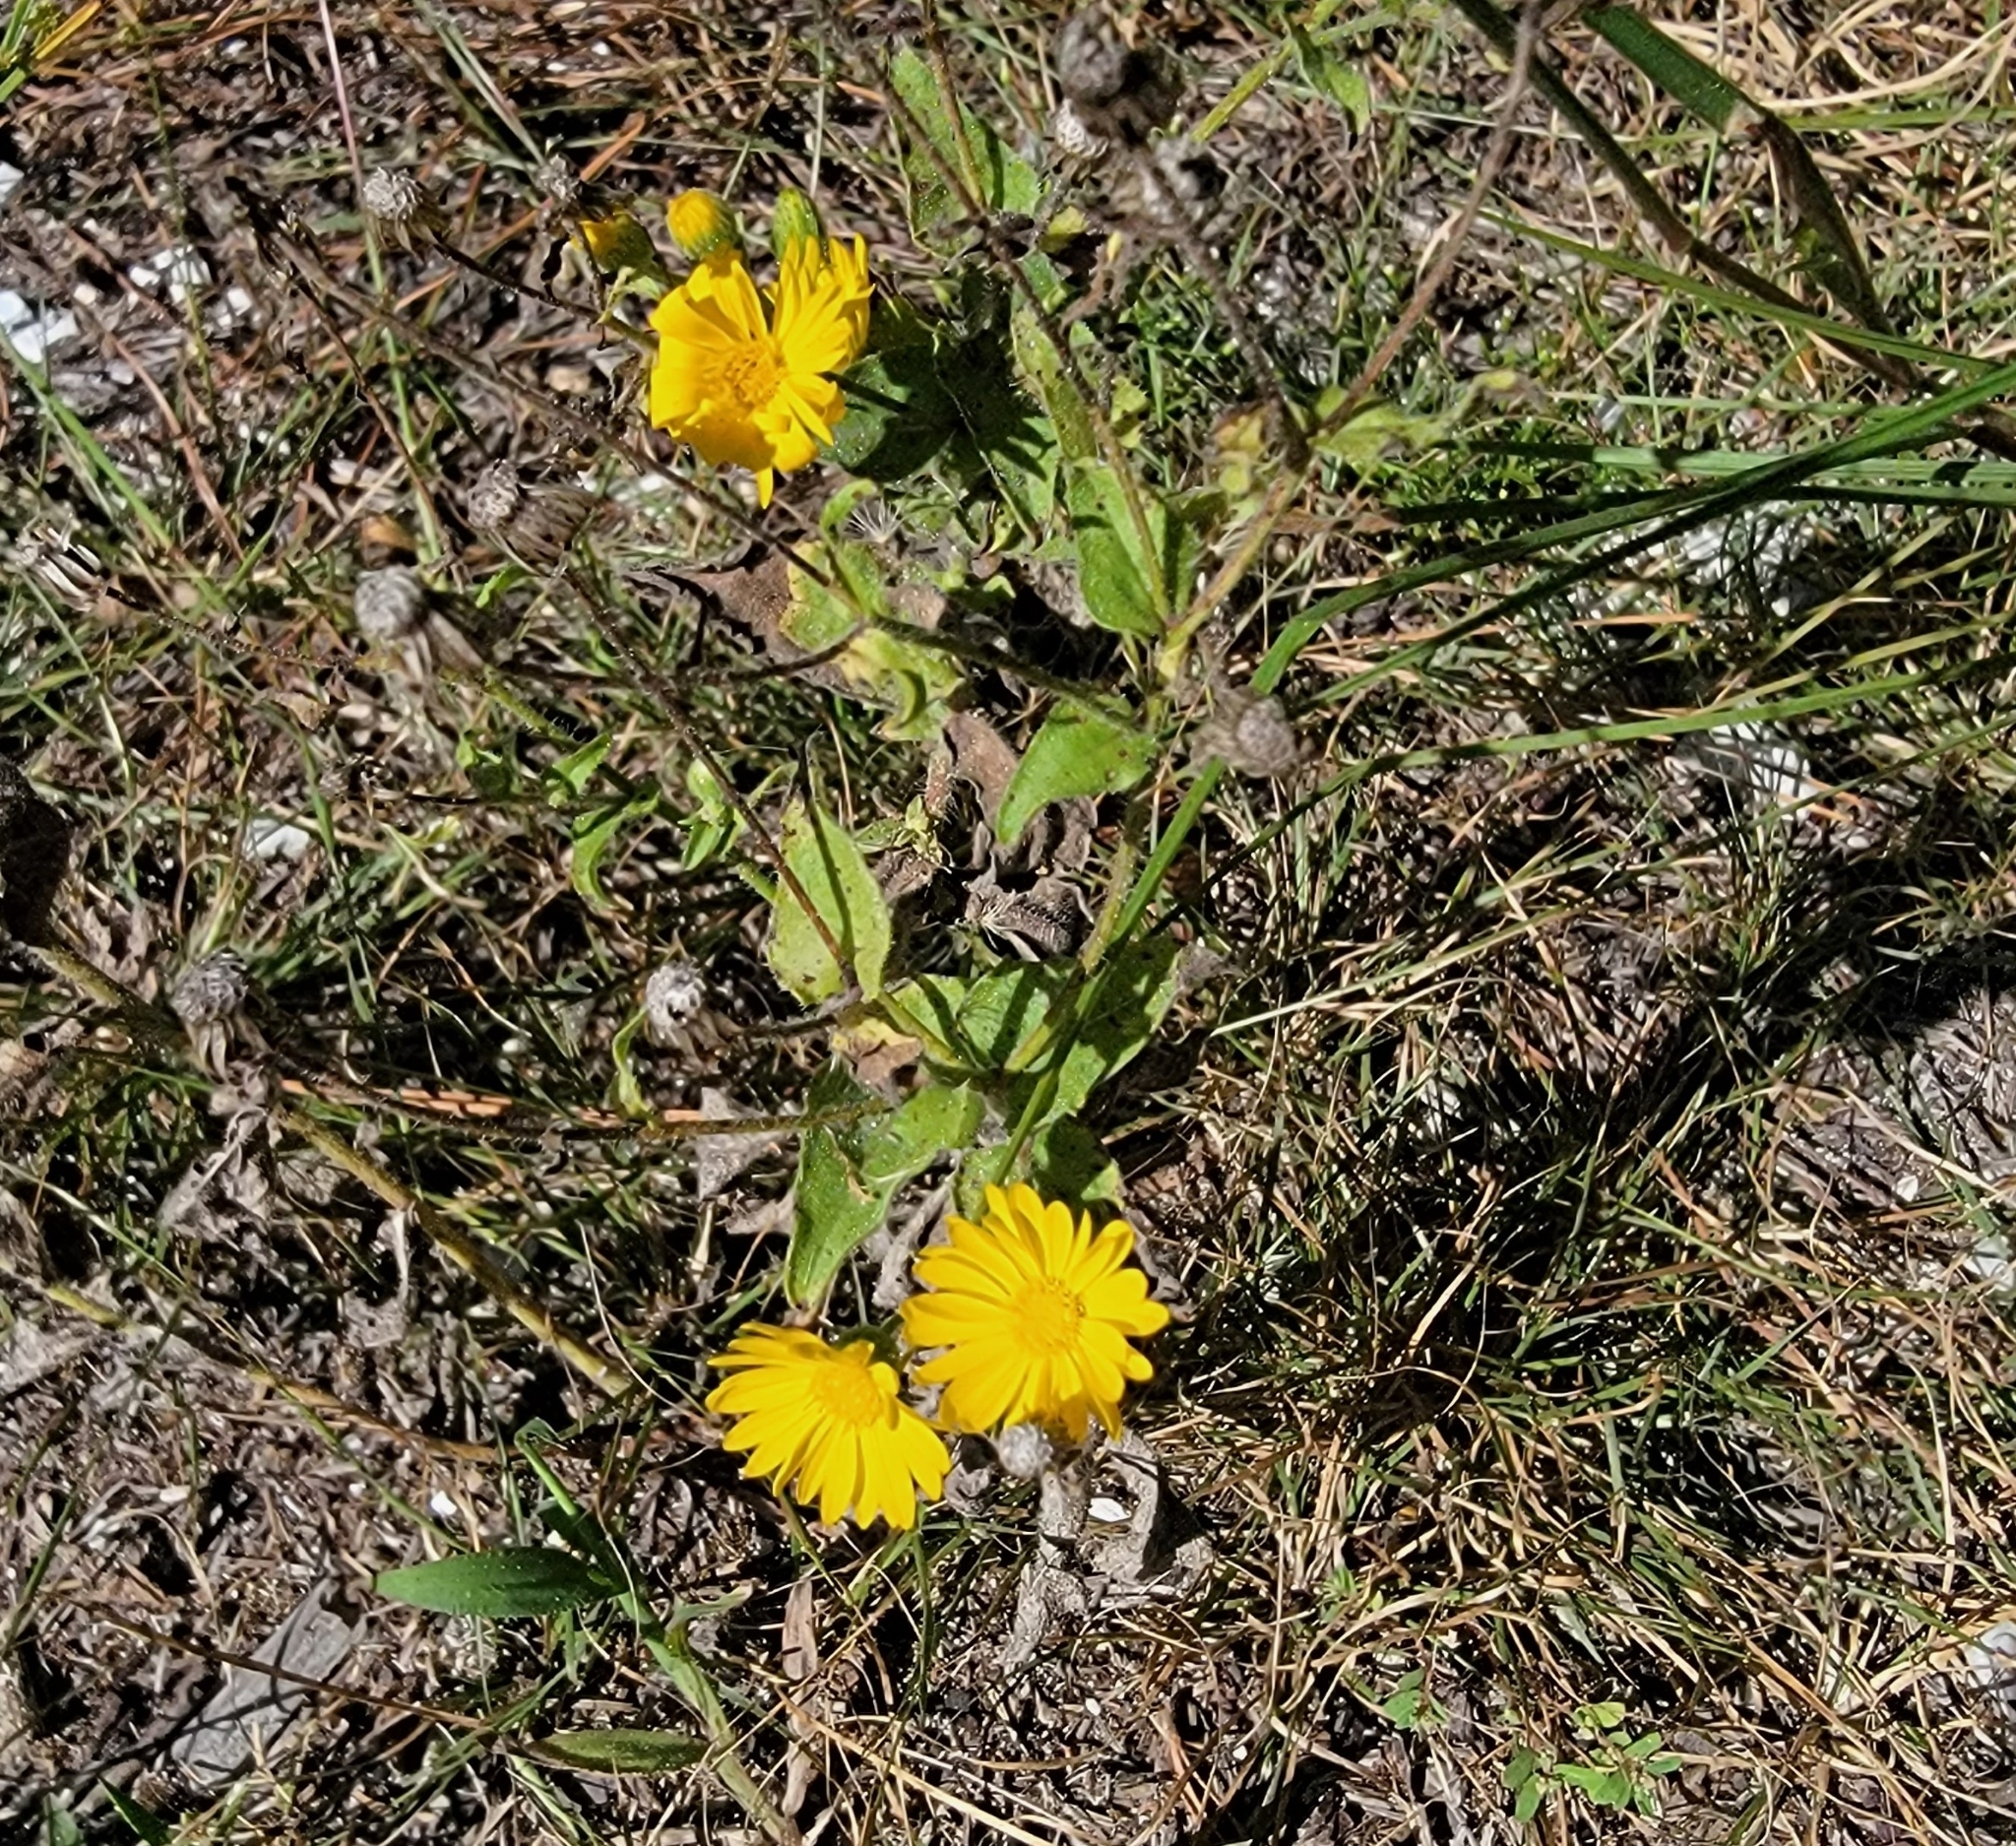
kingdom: Plantae
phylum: Tracheophyta
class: Magnoliopsida
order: Asterales
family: Asteraceae
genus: Heterotheca
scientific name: Heterotheca subaxillaris
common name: Camphorweed
